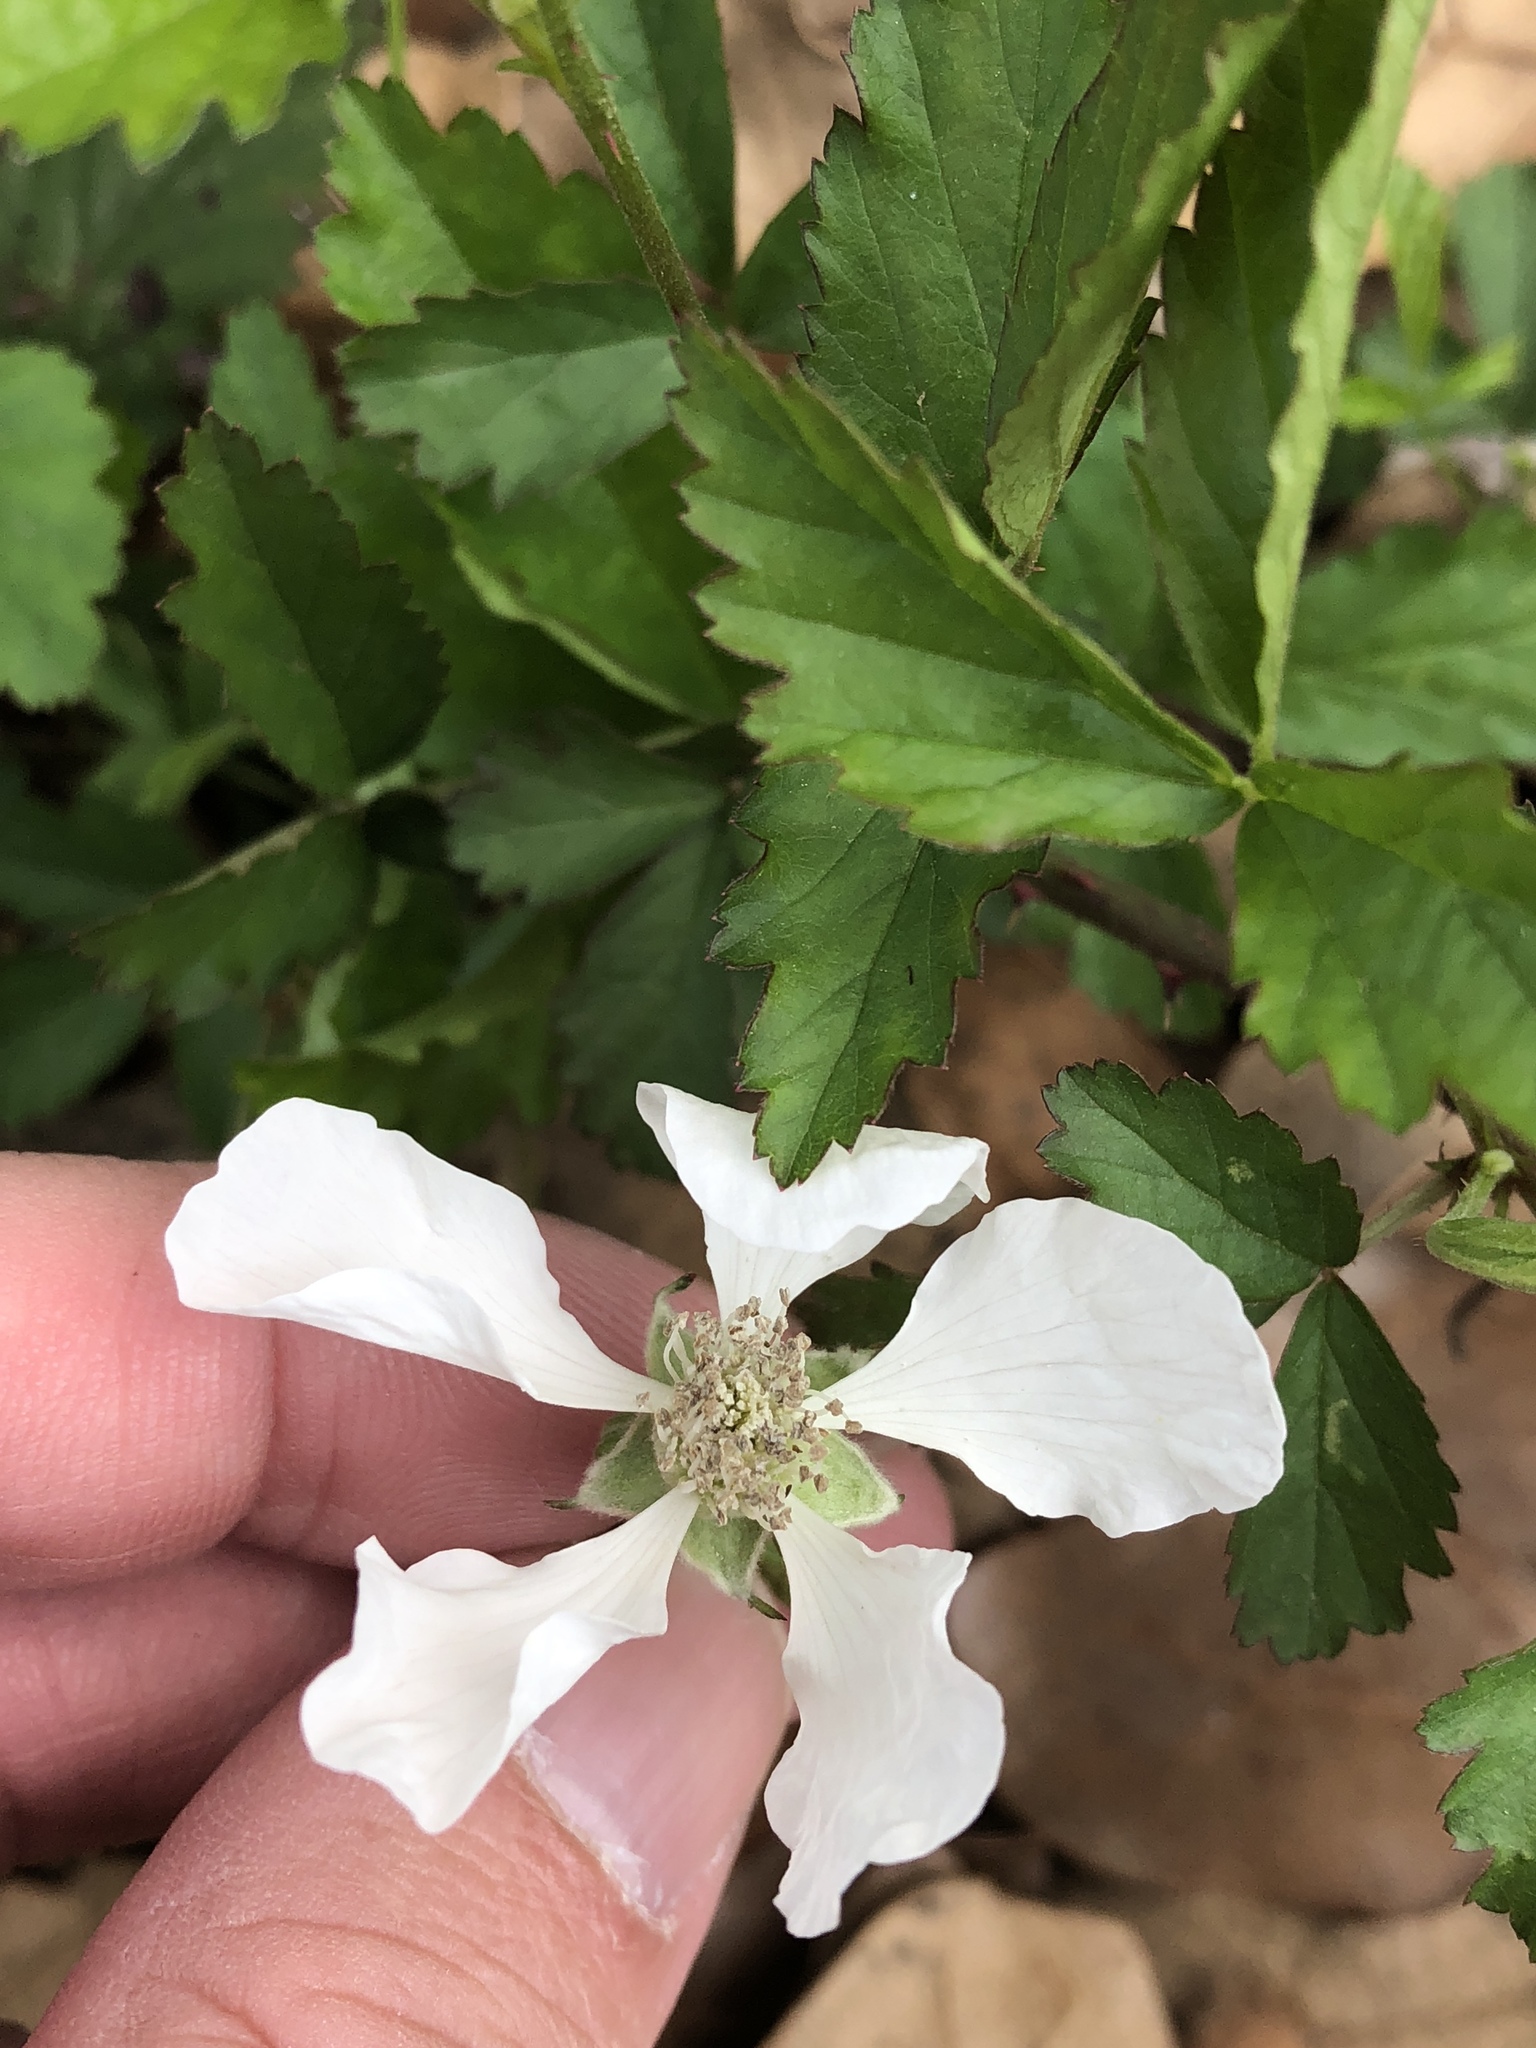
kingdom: Plantae
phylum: Tracheophyta
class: Magnoliopsida
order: Rosales
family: Rosaceae
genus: Rubus
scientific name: Rubus trivialis
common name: Southern dewberry
